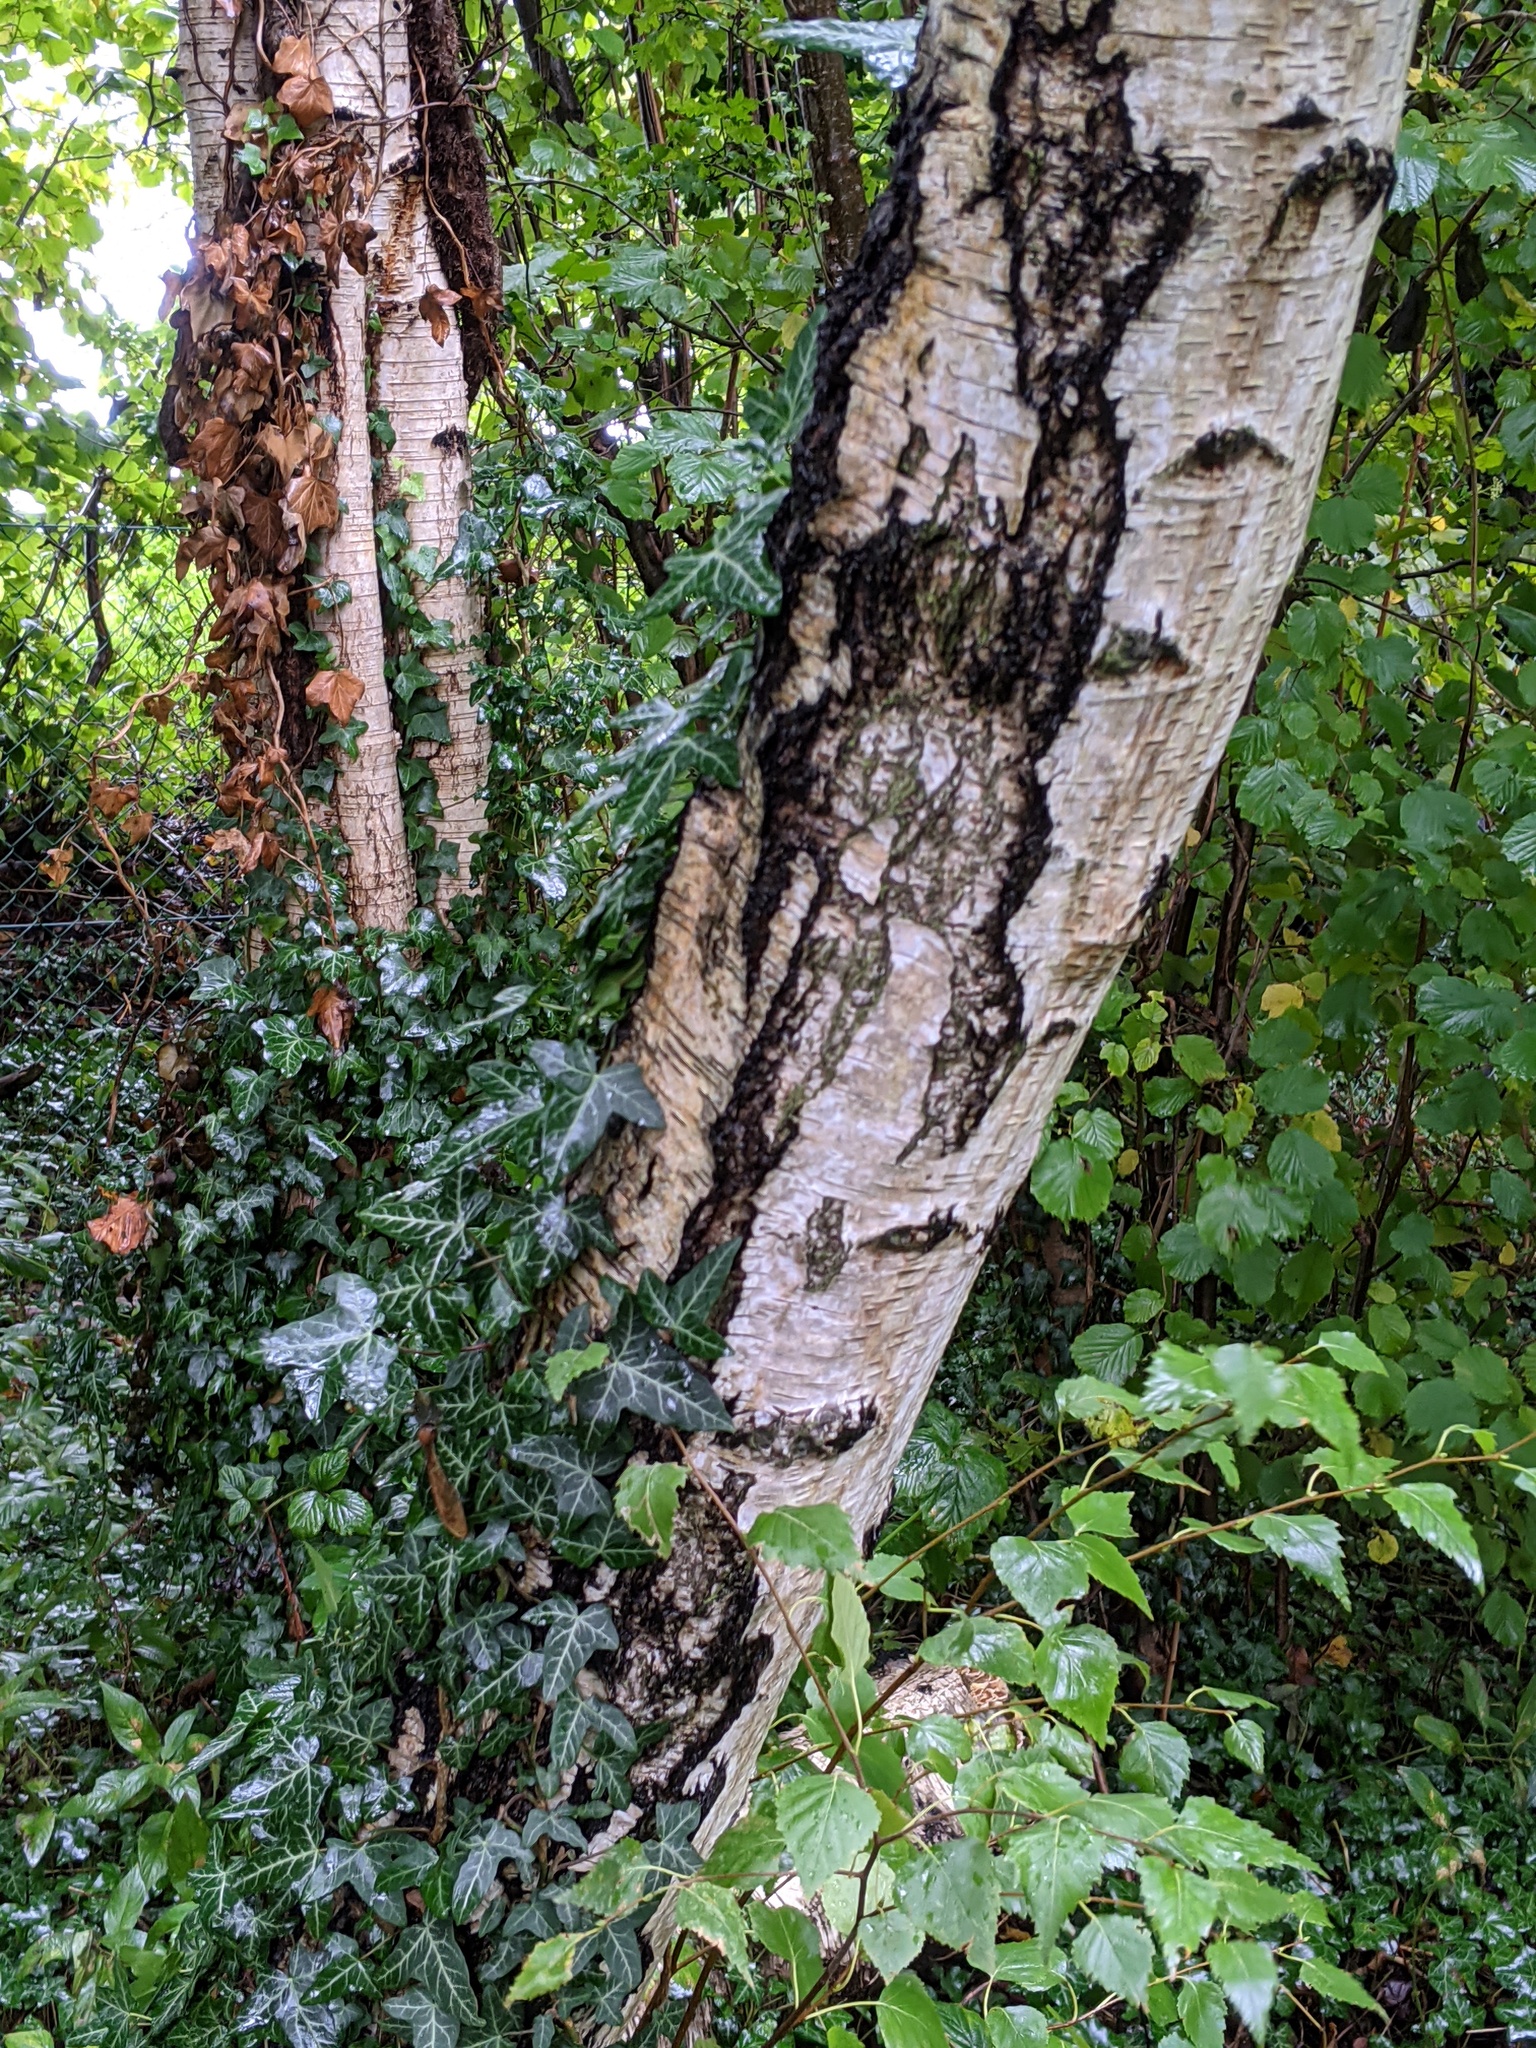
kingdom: Plantae
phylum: Tracheophyta
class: Magnoliopsida
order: Fagales
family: Betulaceae
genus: Betula
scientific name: Betula pendula
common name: Silver birch
